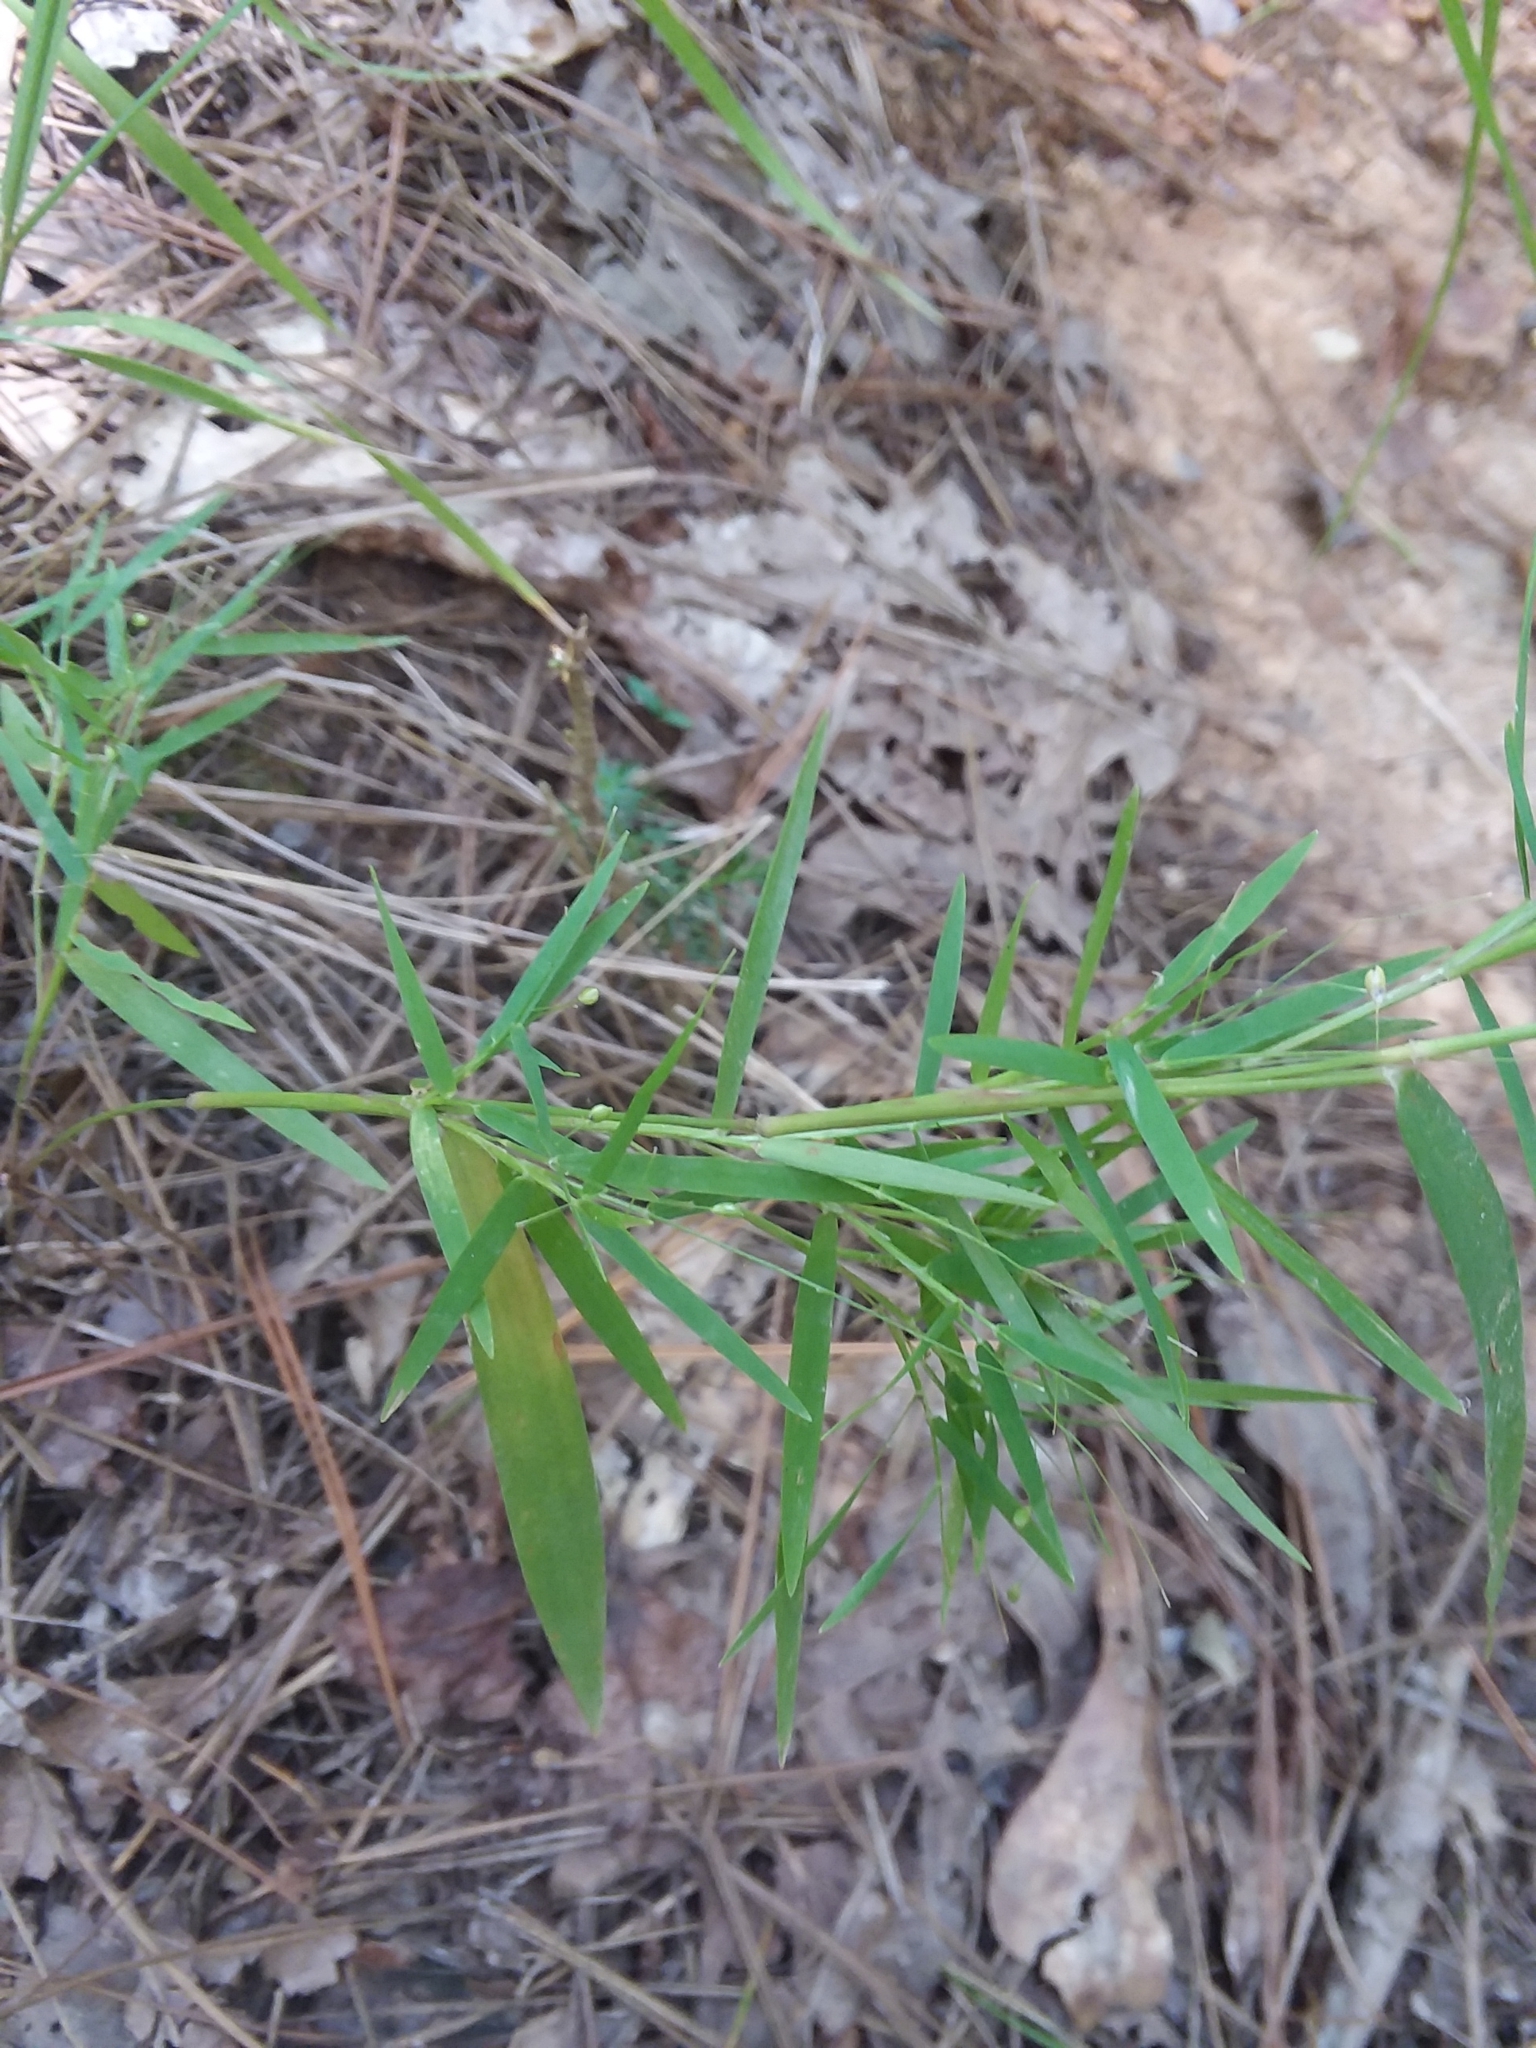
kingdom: Plantae
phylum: Tracheophyta
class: Liliopsida
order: Poales
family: Poaceae
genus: Dichanthelium
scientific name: Dichanthelium dichotomum
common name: Cypress panicgrass
